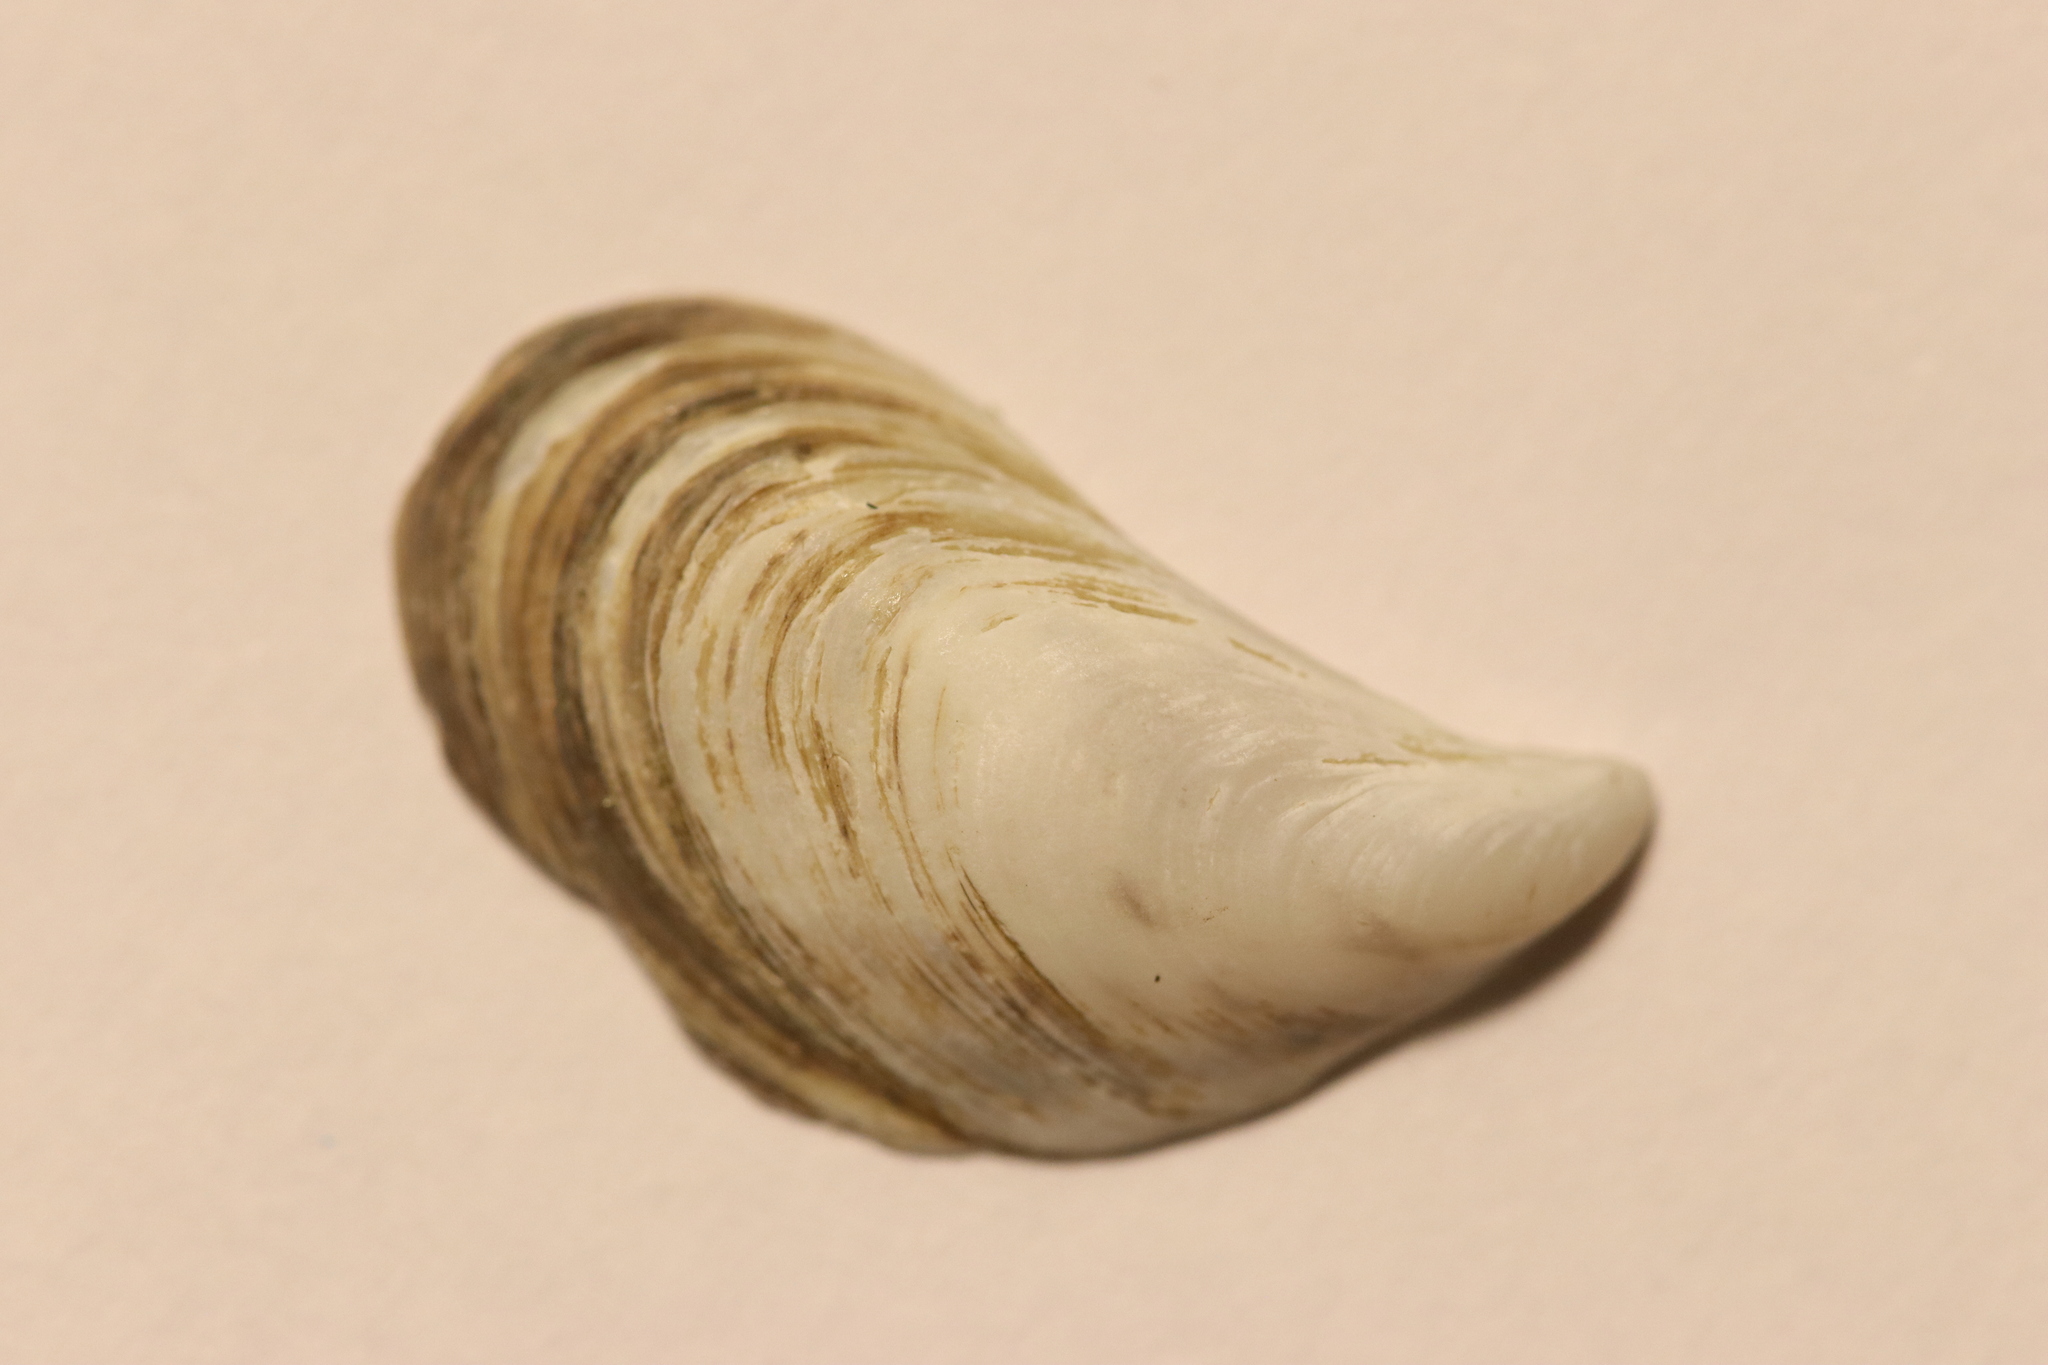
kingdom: Animalia
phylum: Mollusca
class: Bivalvia
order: Myida
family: Dreissenidae
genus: Dreissena
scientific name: Dreissena bugensis
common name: Quagga mussel
